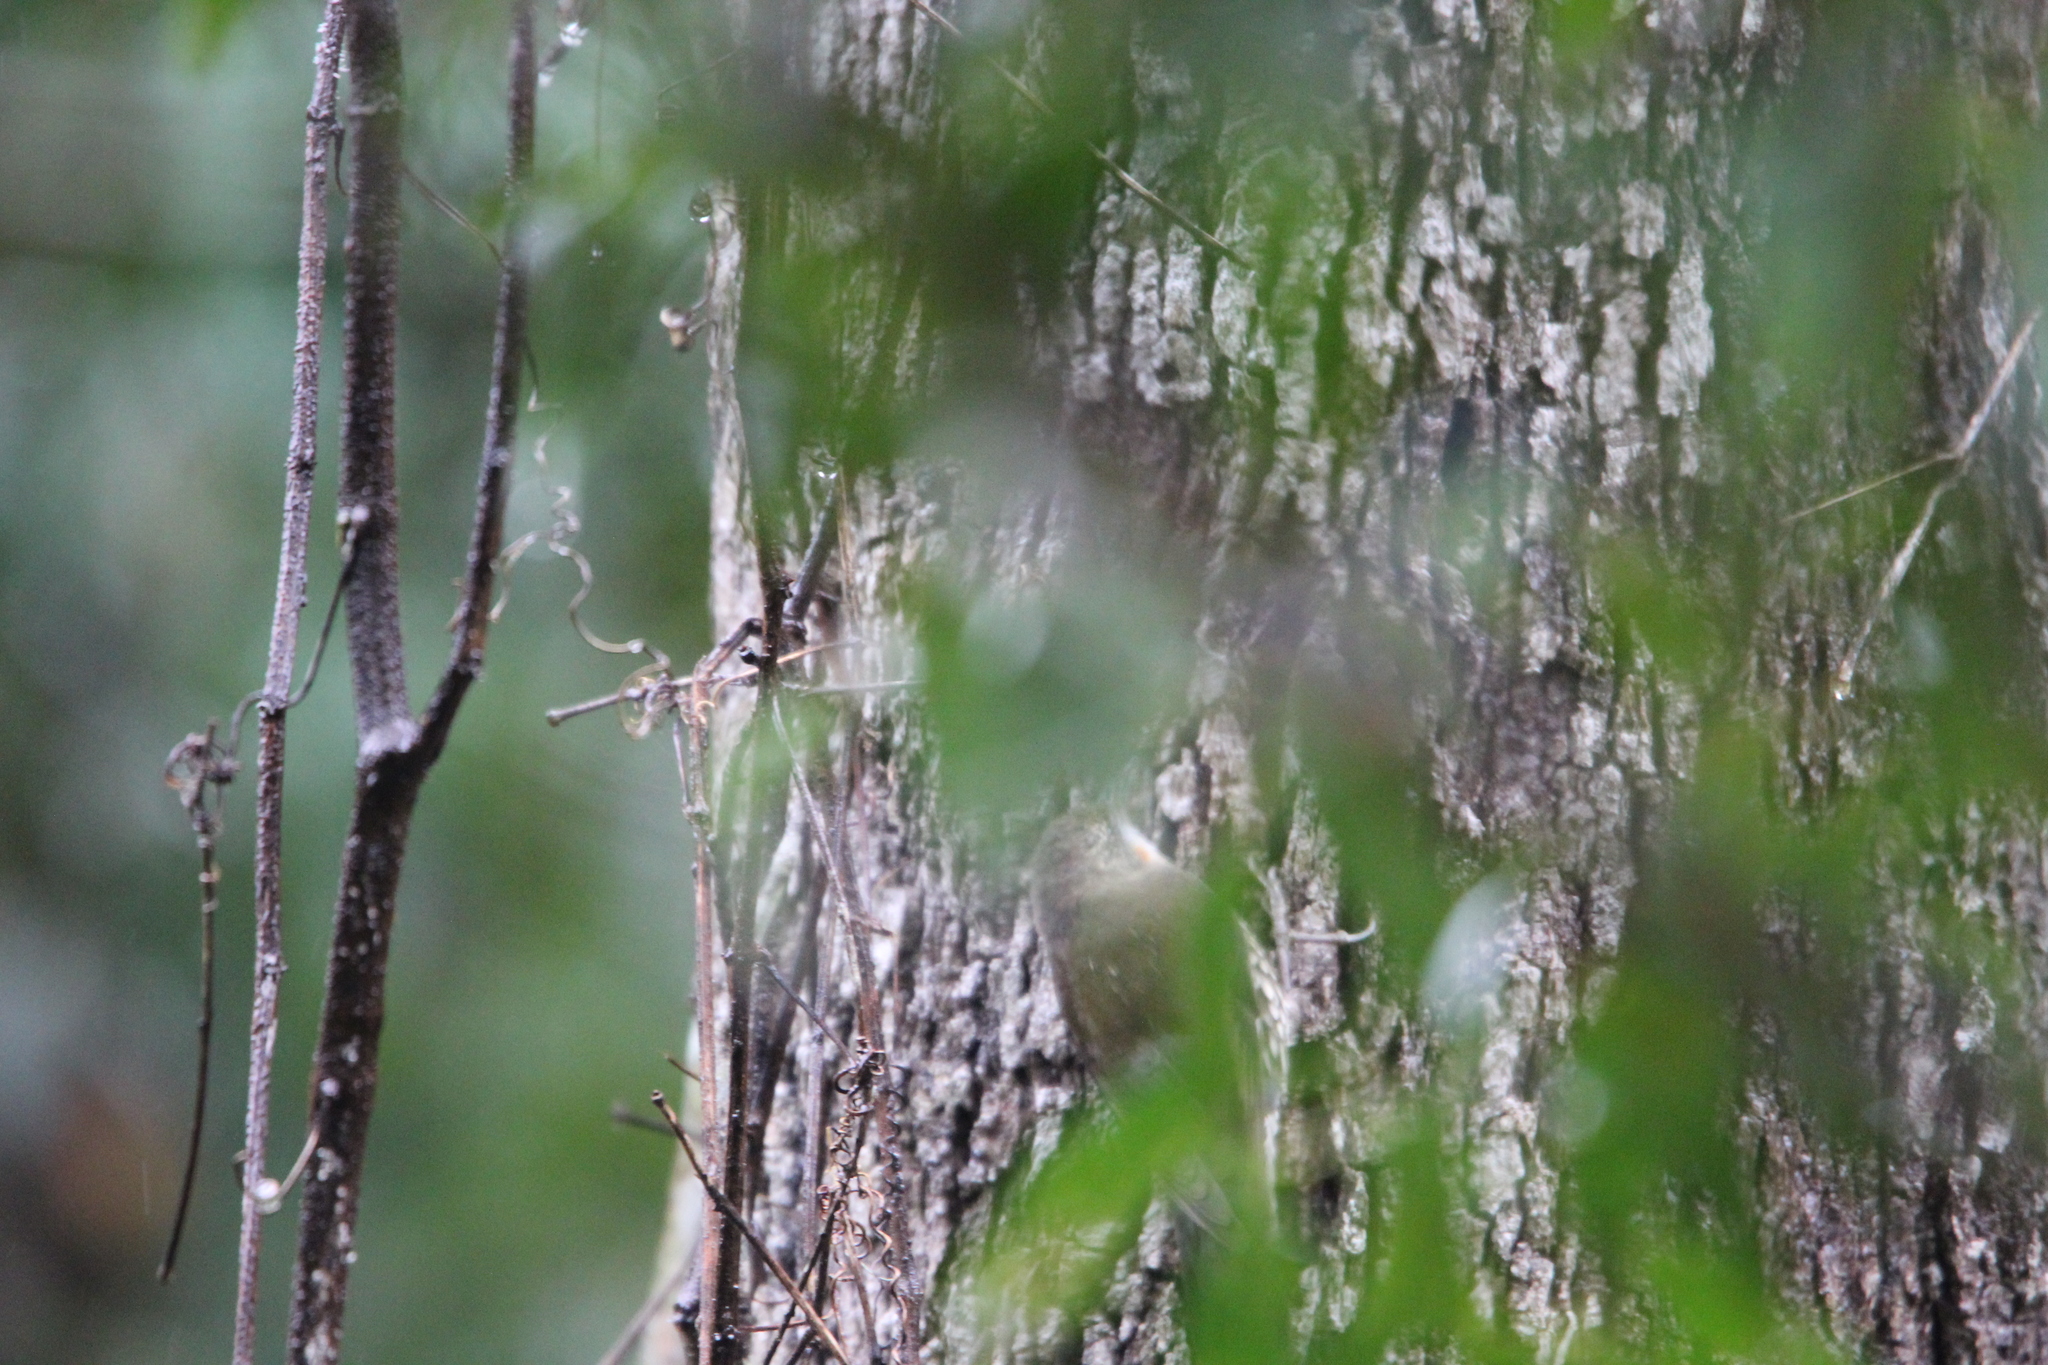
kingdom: Animalia
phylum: Chordata
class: Aves
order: Passeriformes
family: Climacteridae
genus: Cormobates
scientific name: Cormobates leucophaea
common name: White-throated treecreeper
